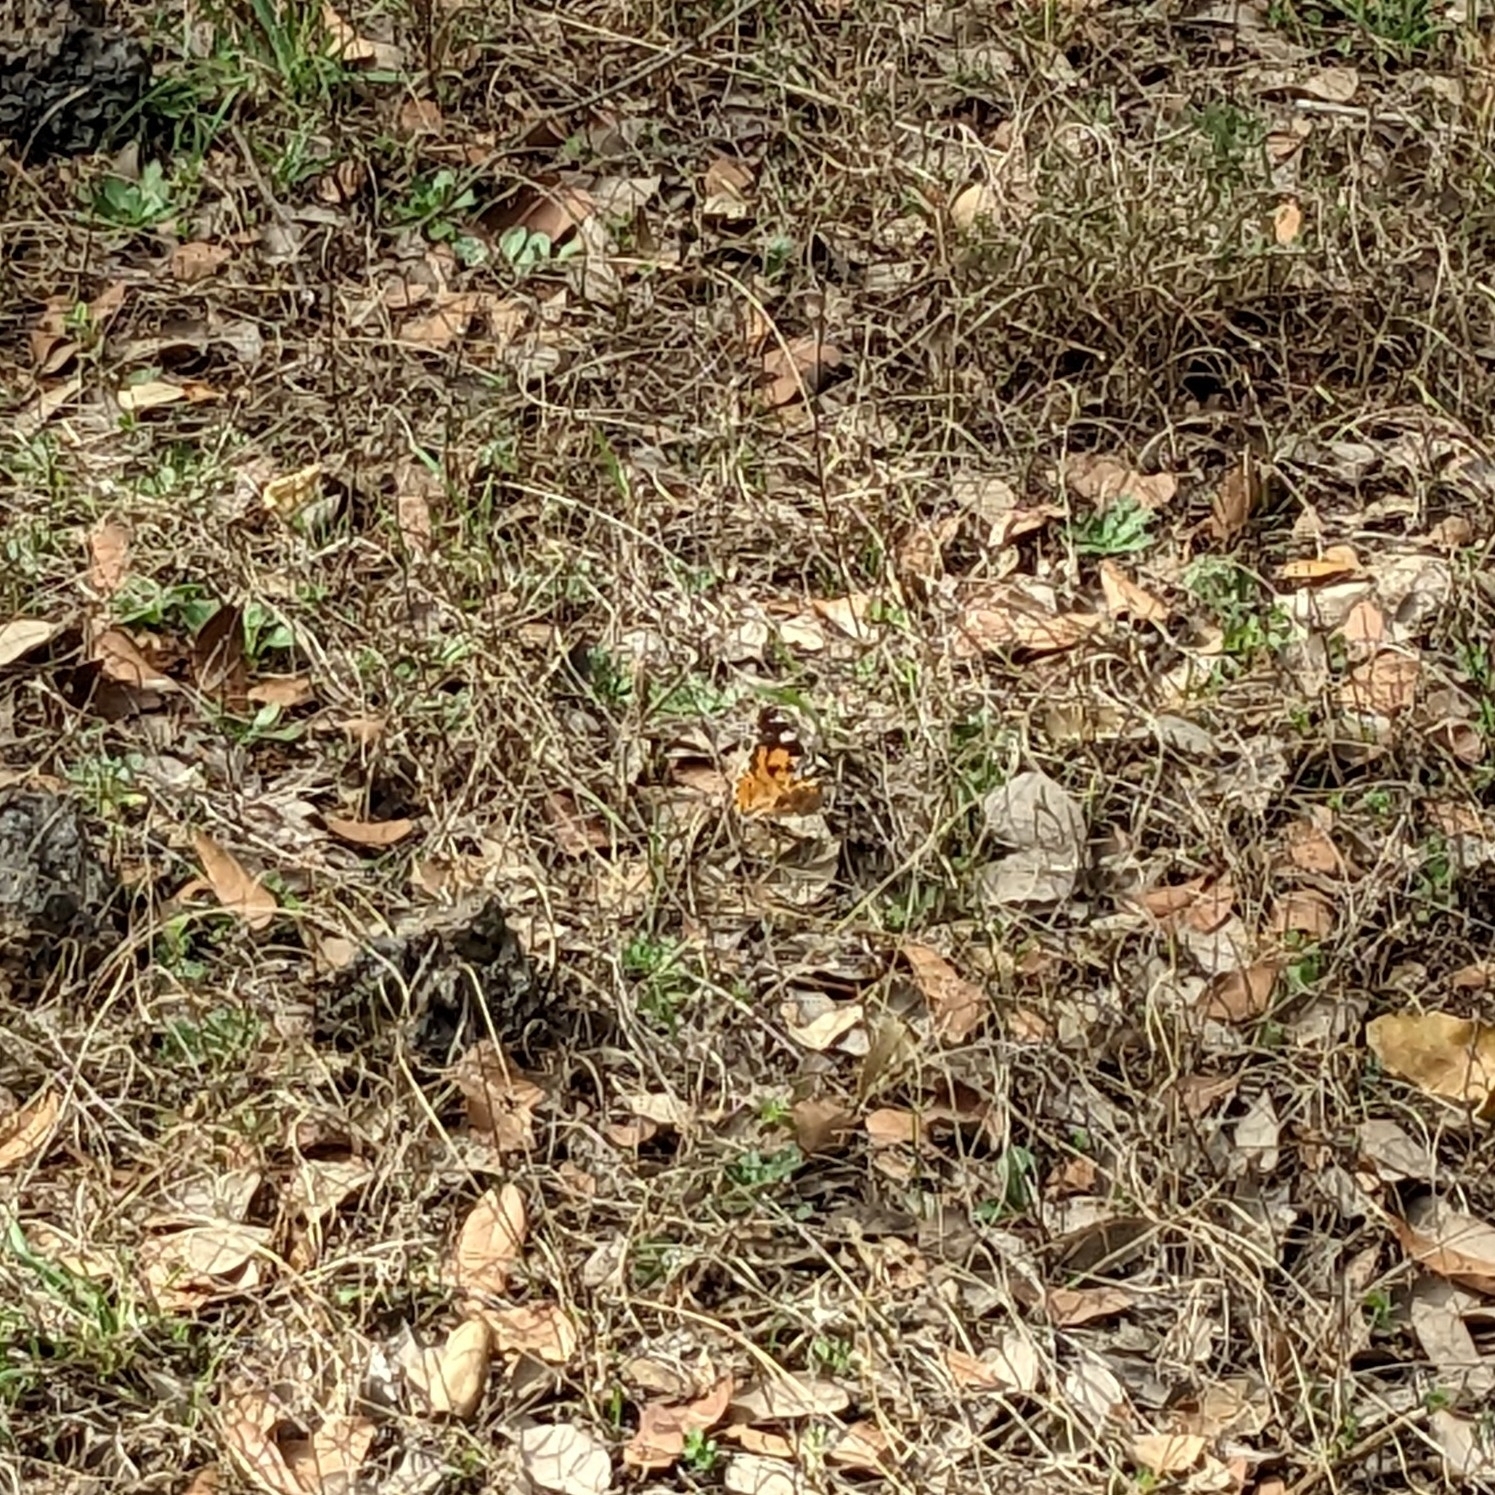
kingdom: Animalia
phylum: Arthropoda
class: Insecta
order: Lepidoptera
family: Nymphalidae
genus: Vanessa
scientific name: Vanessa cardui
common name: Painted lady
